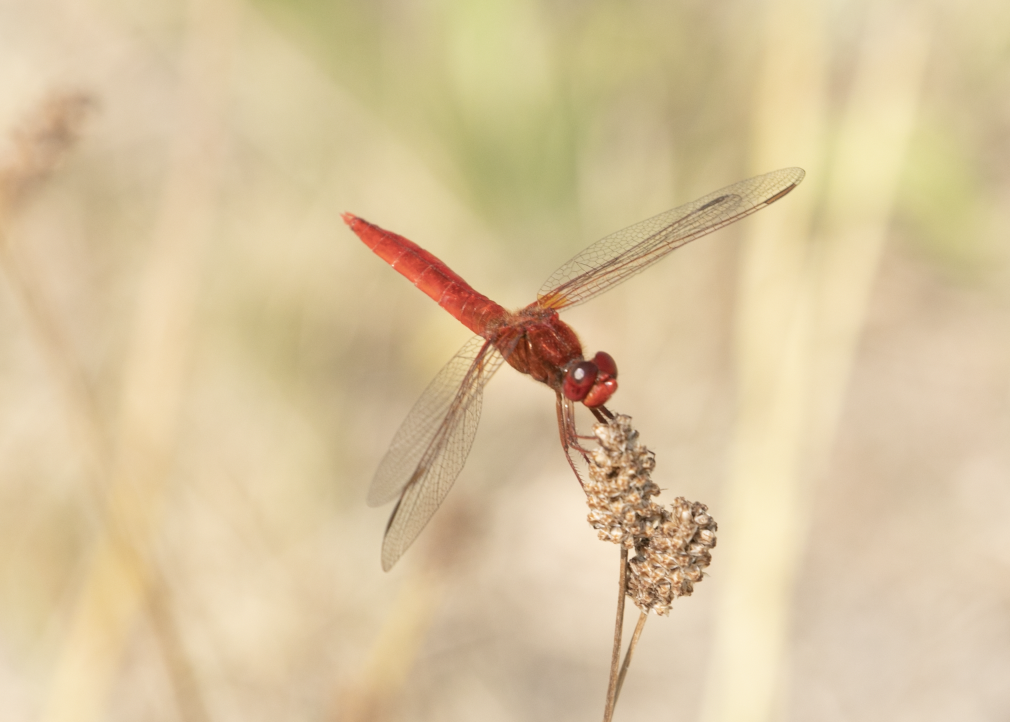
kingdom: Animalia
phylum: Arthropoda
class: Insecta
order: Odonata
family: Libellulidae
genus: Crocothemis
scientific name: Crocothemis erythraea
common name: Scarlet dragonfly
